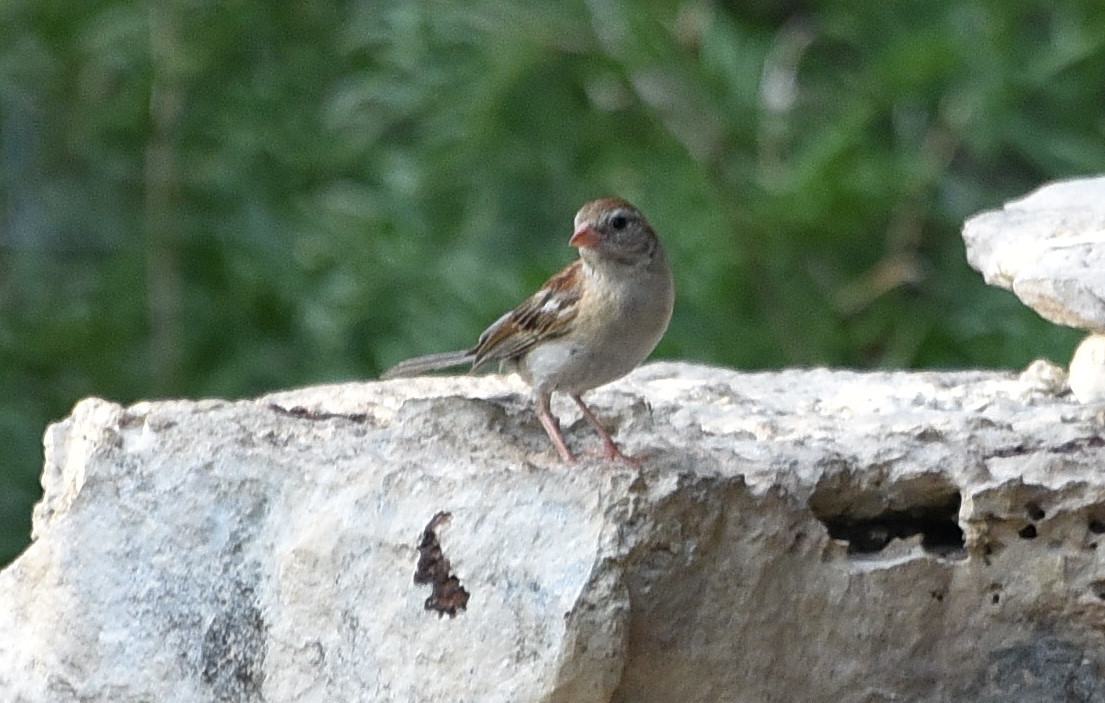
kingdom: Animalia
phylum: Chordata
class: Aves
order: Passeriformes
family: Passerellidae
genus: Spizella
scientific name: Spizella pusilla
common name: Field sparrow
